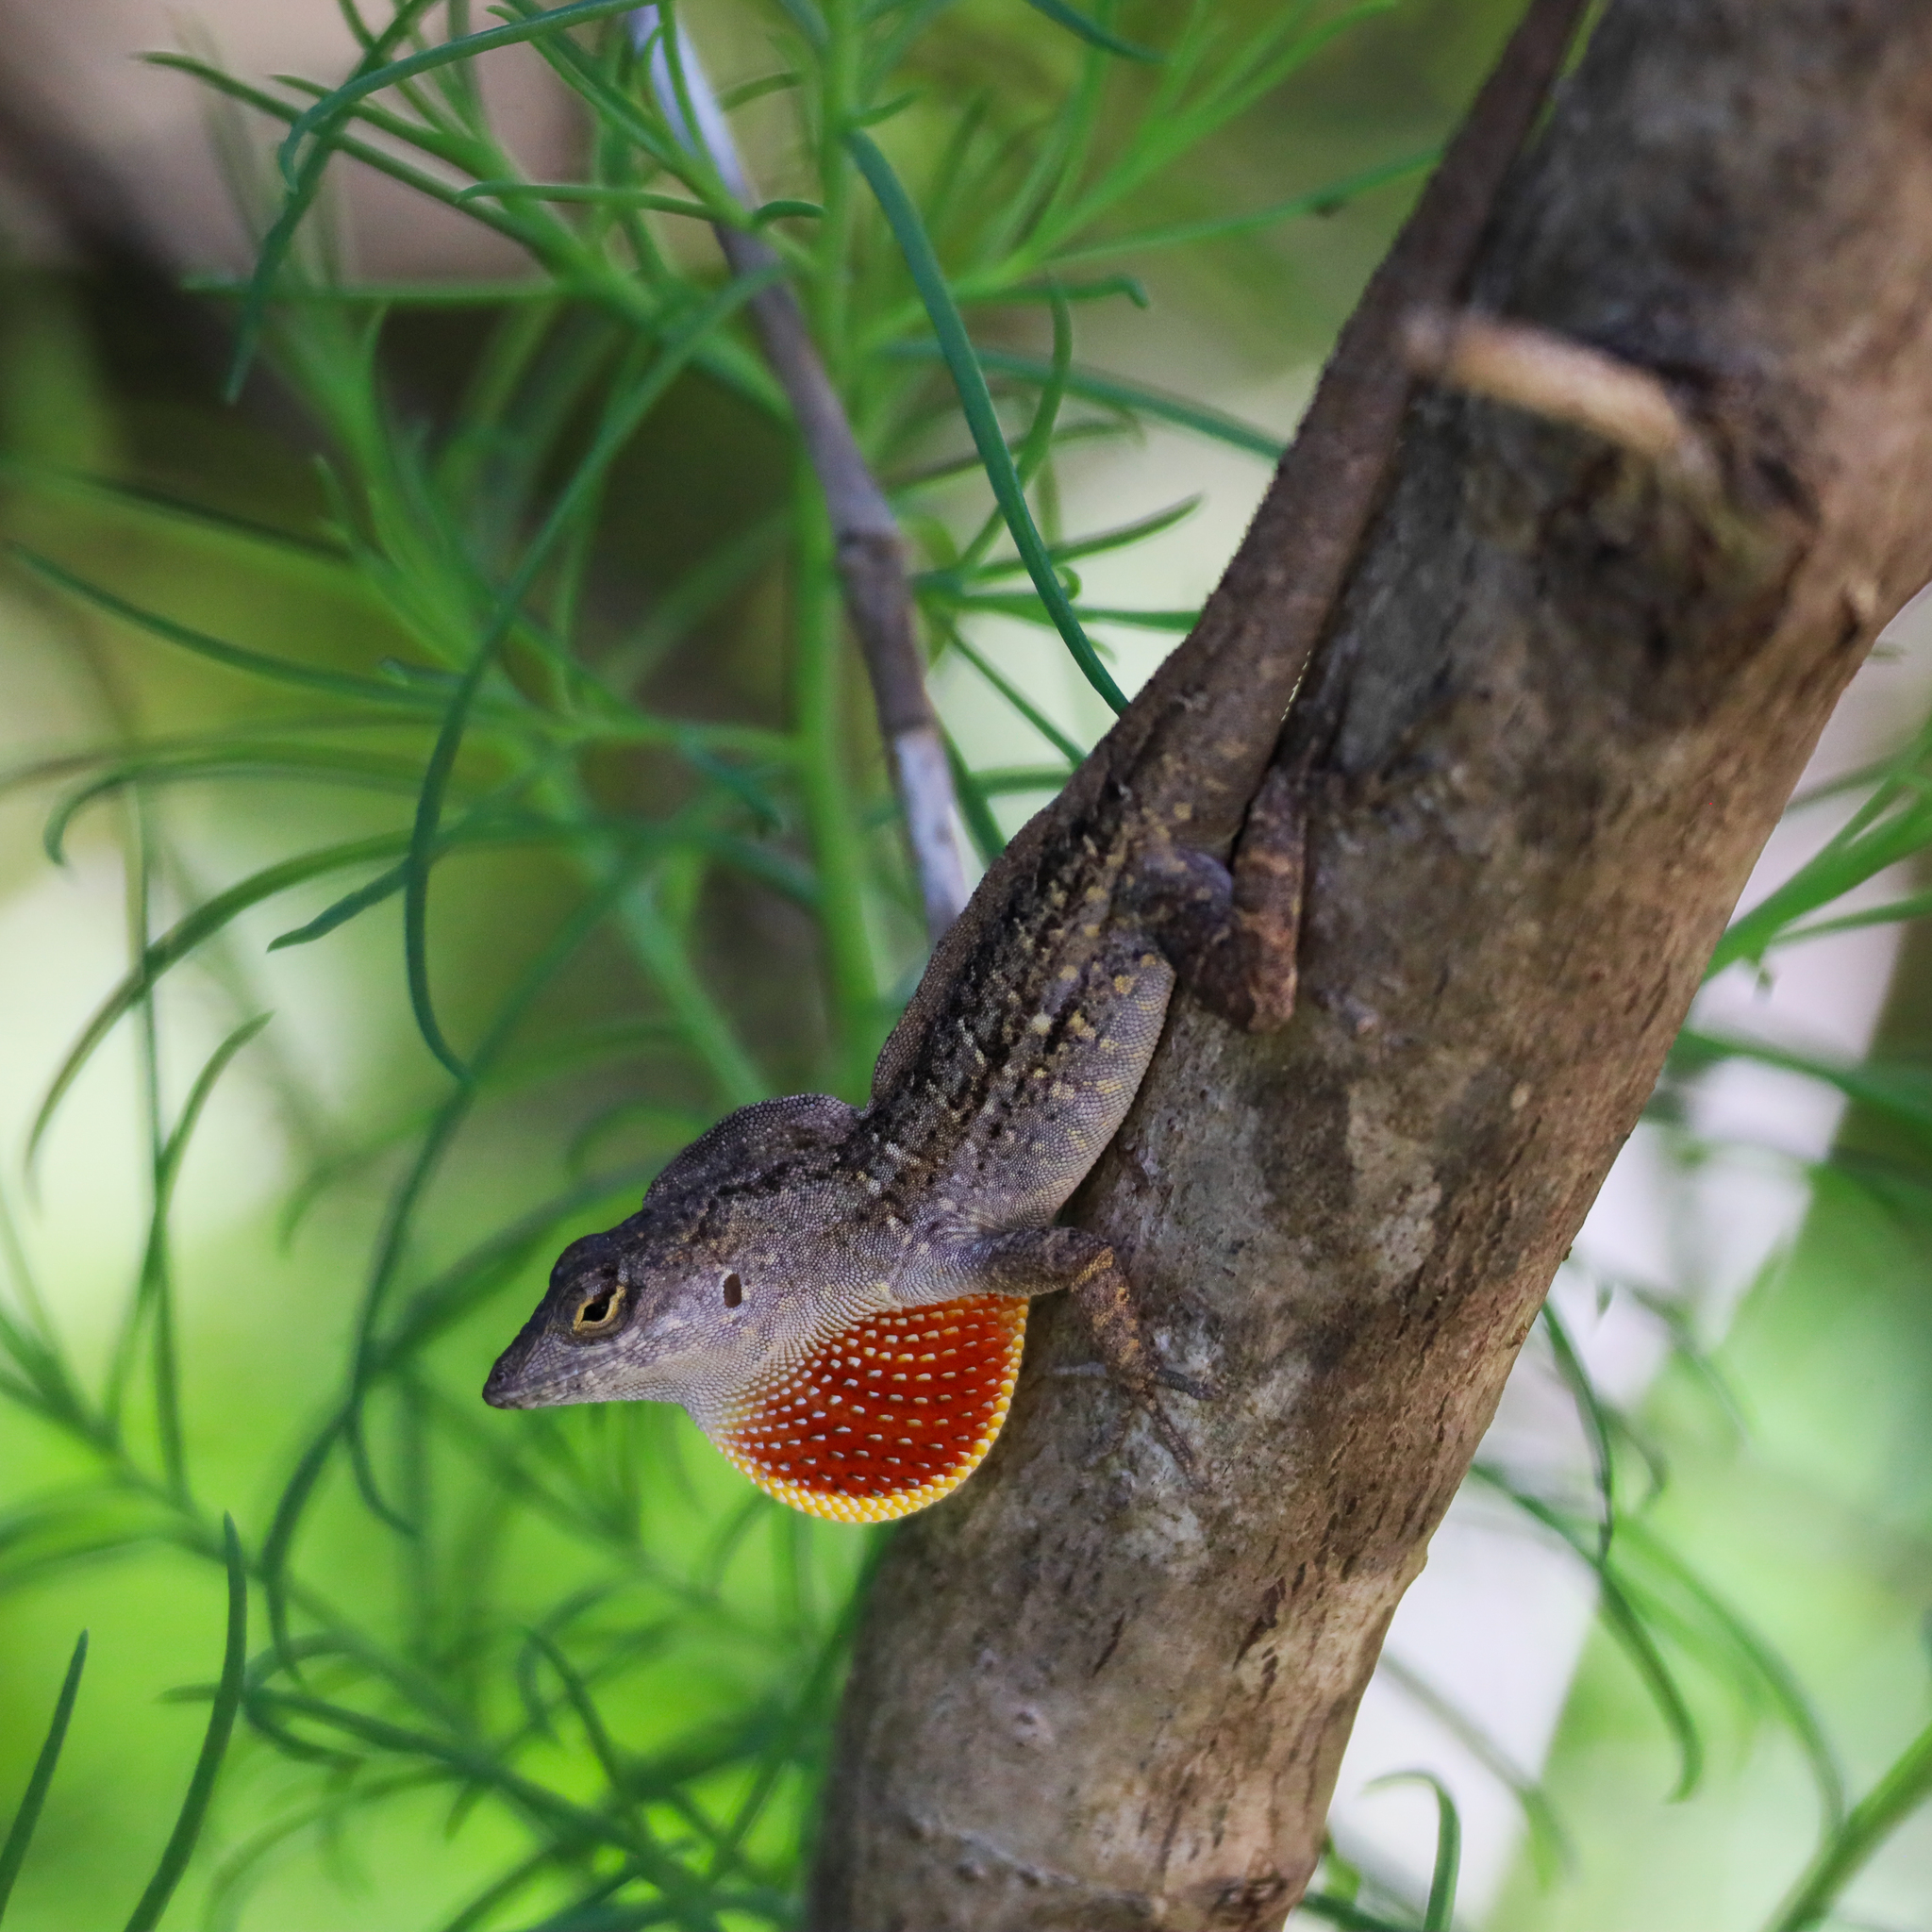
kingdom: Animalia
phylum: Chordata
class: Squamata
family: Dactyloidae
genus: Anolis
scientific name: Anolis sagrei
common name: Brown anole
